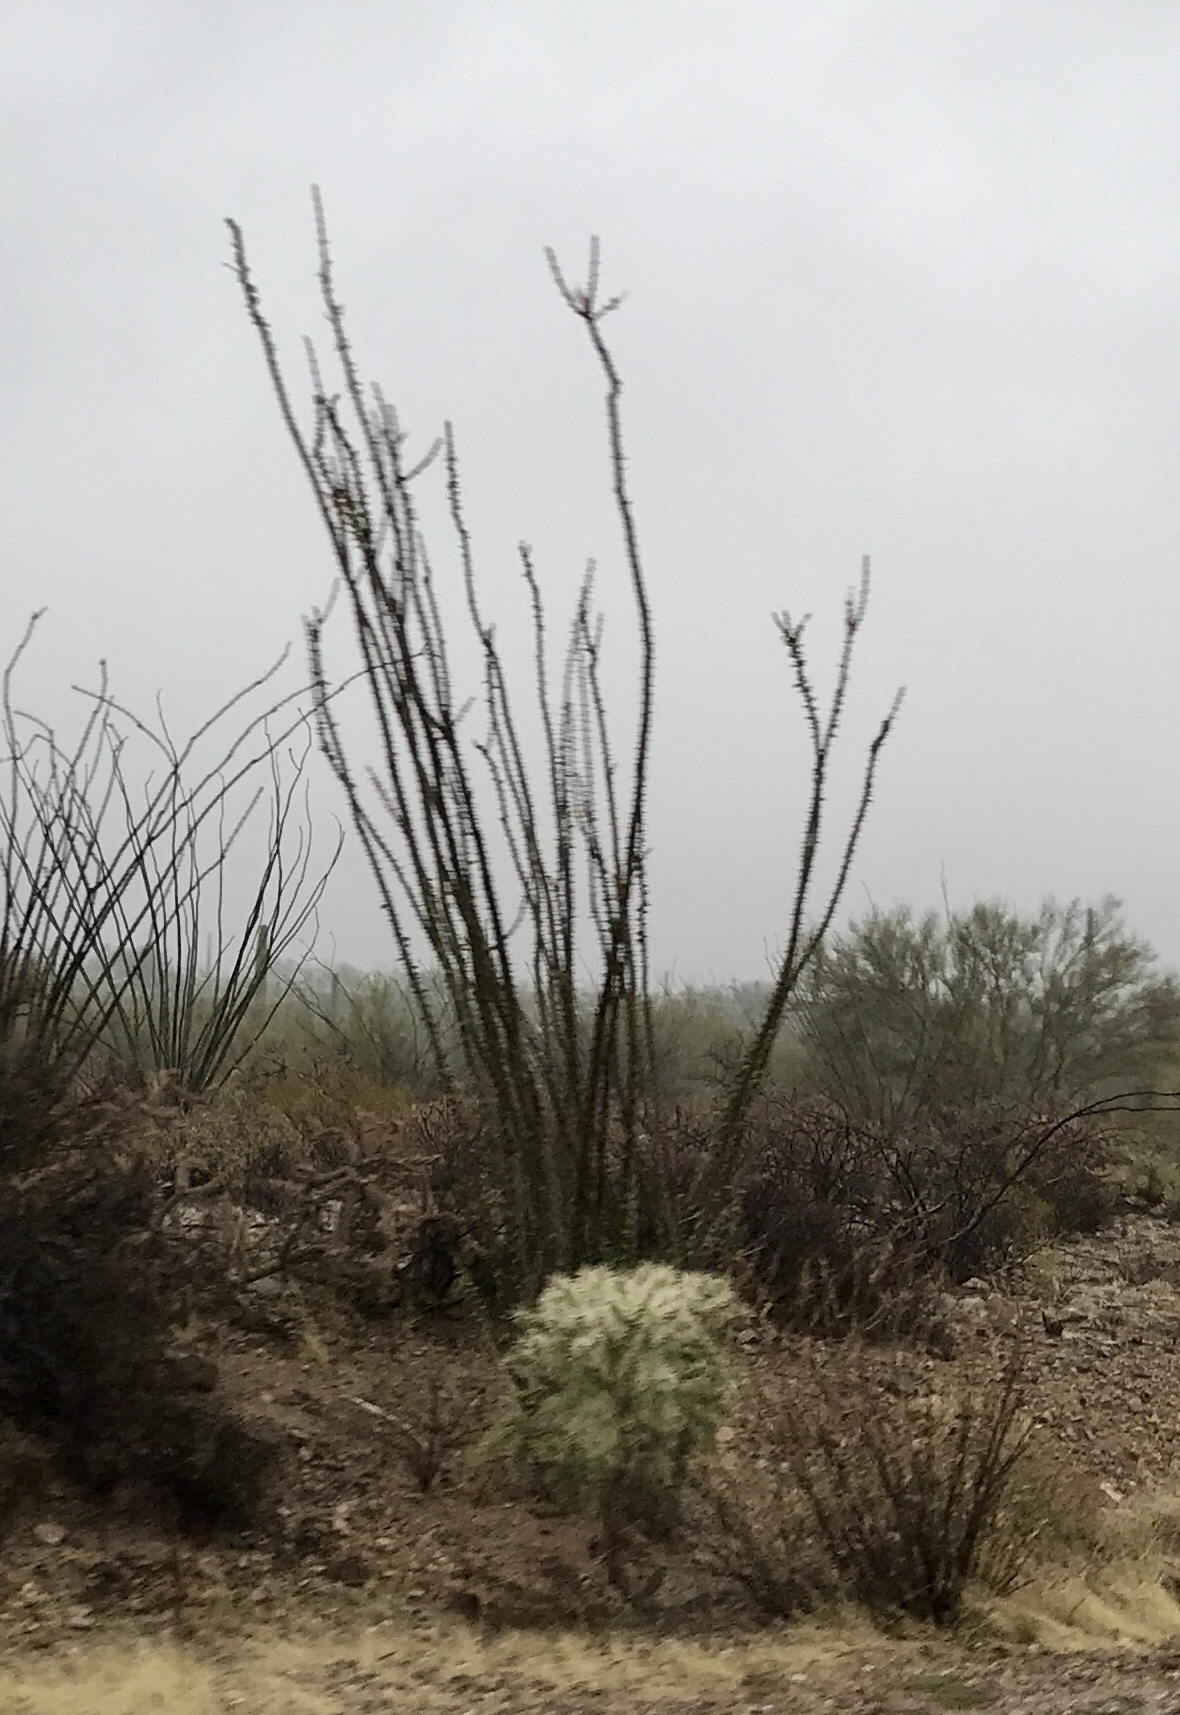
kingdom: Plantae
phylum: Tracheophyta
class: Magnoliopsida
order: Ericales
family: Fouquieriaceae
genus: Fouquieria
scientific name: Fouquieria splendens
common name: Vine-cactus
